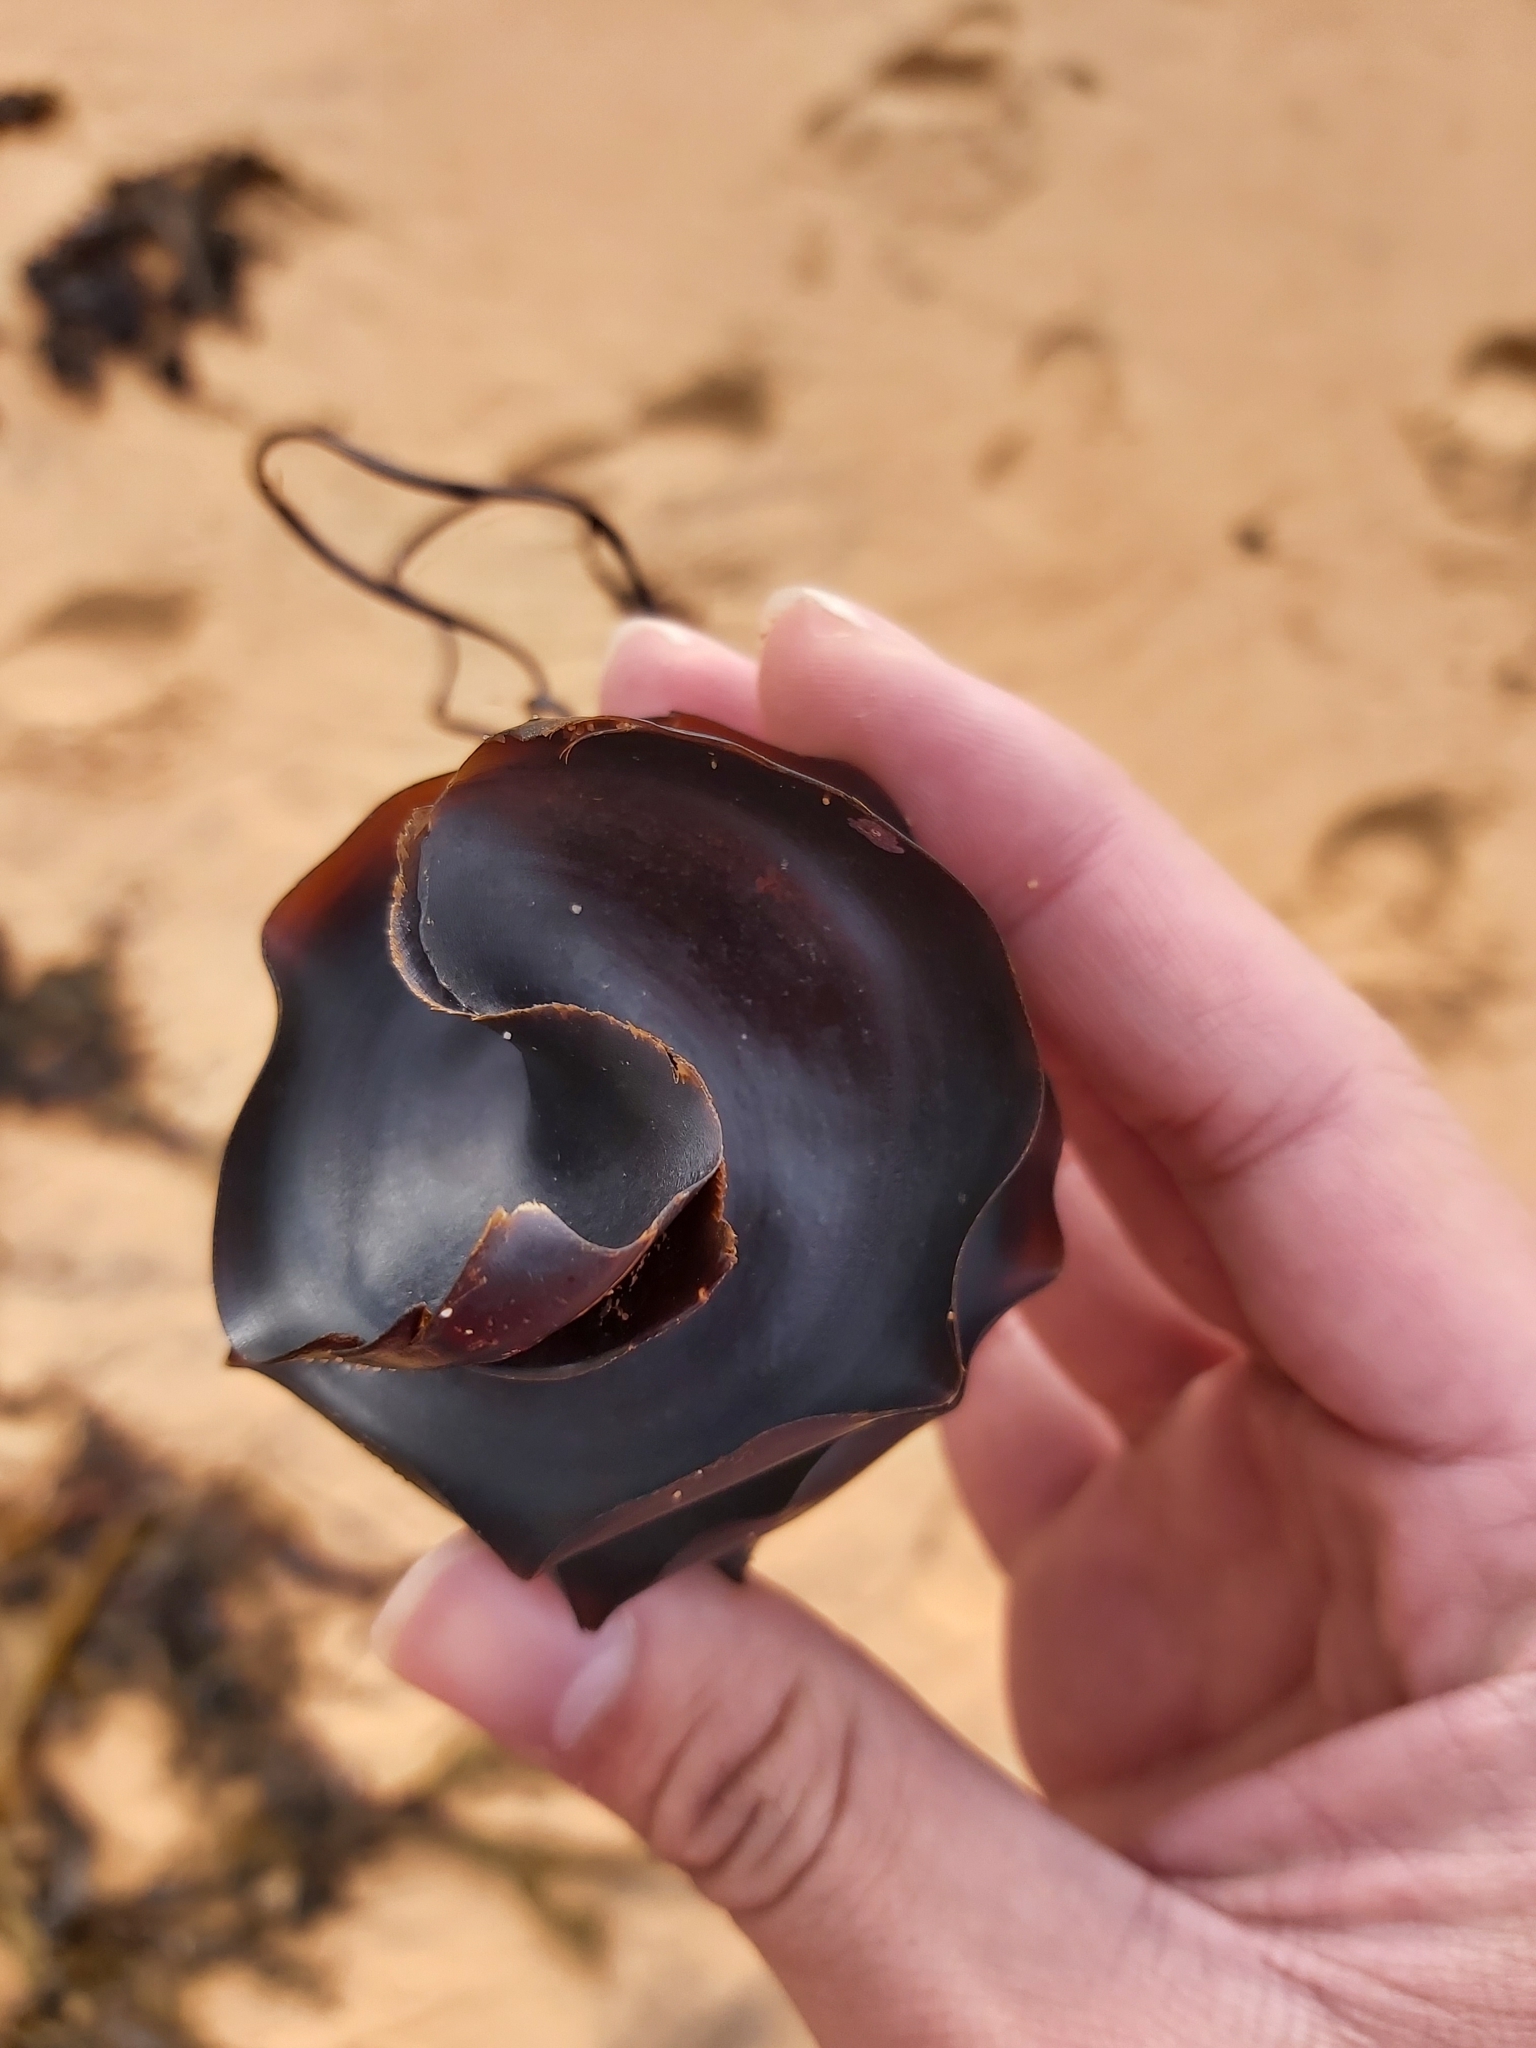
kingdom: Animalia
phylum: Chordata
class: Elasmobranchii
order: Heterodontiformes
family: Heterodontidae
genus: Heterodontus
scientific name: Heterodontus galeatus
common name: Crested bullhead shark
